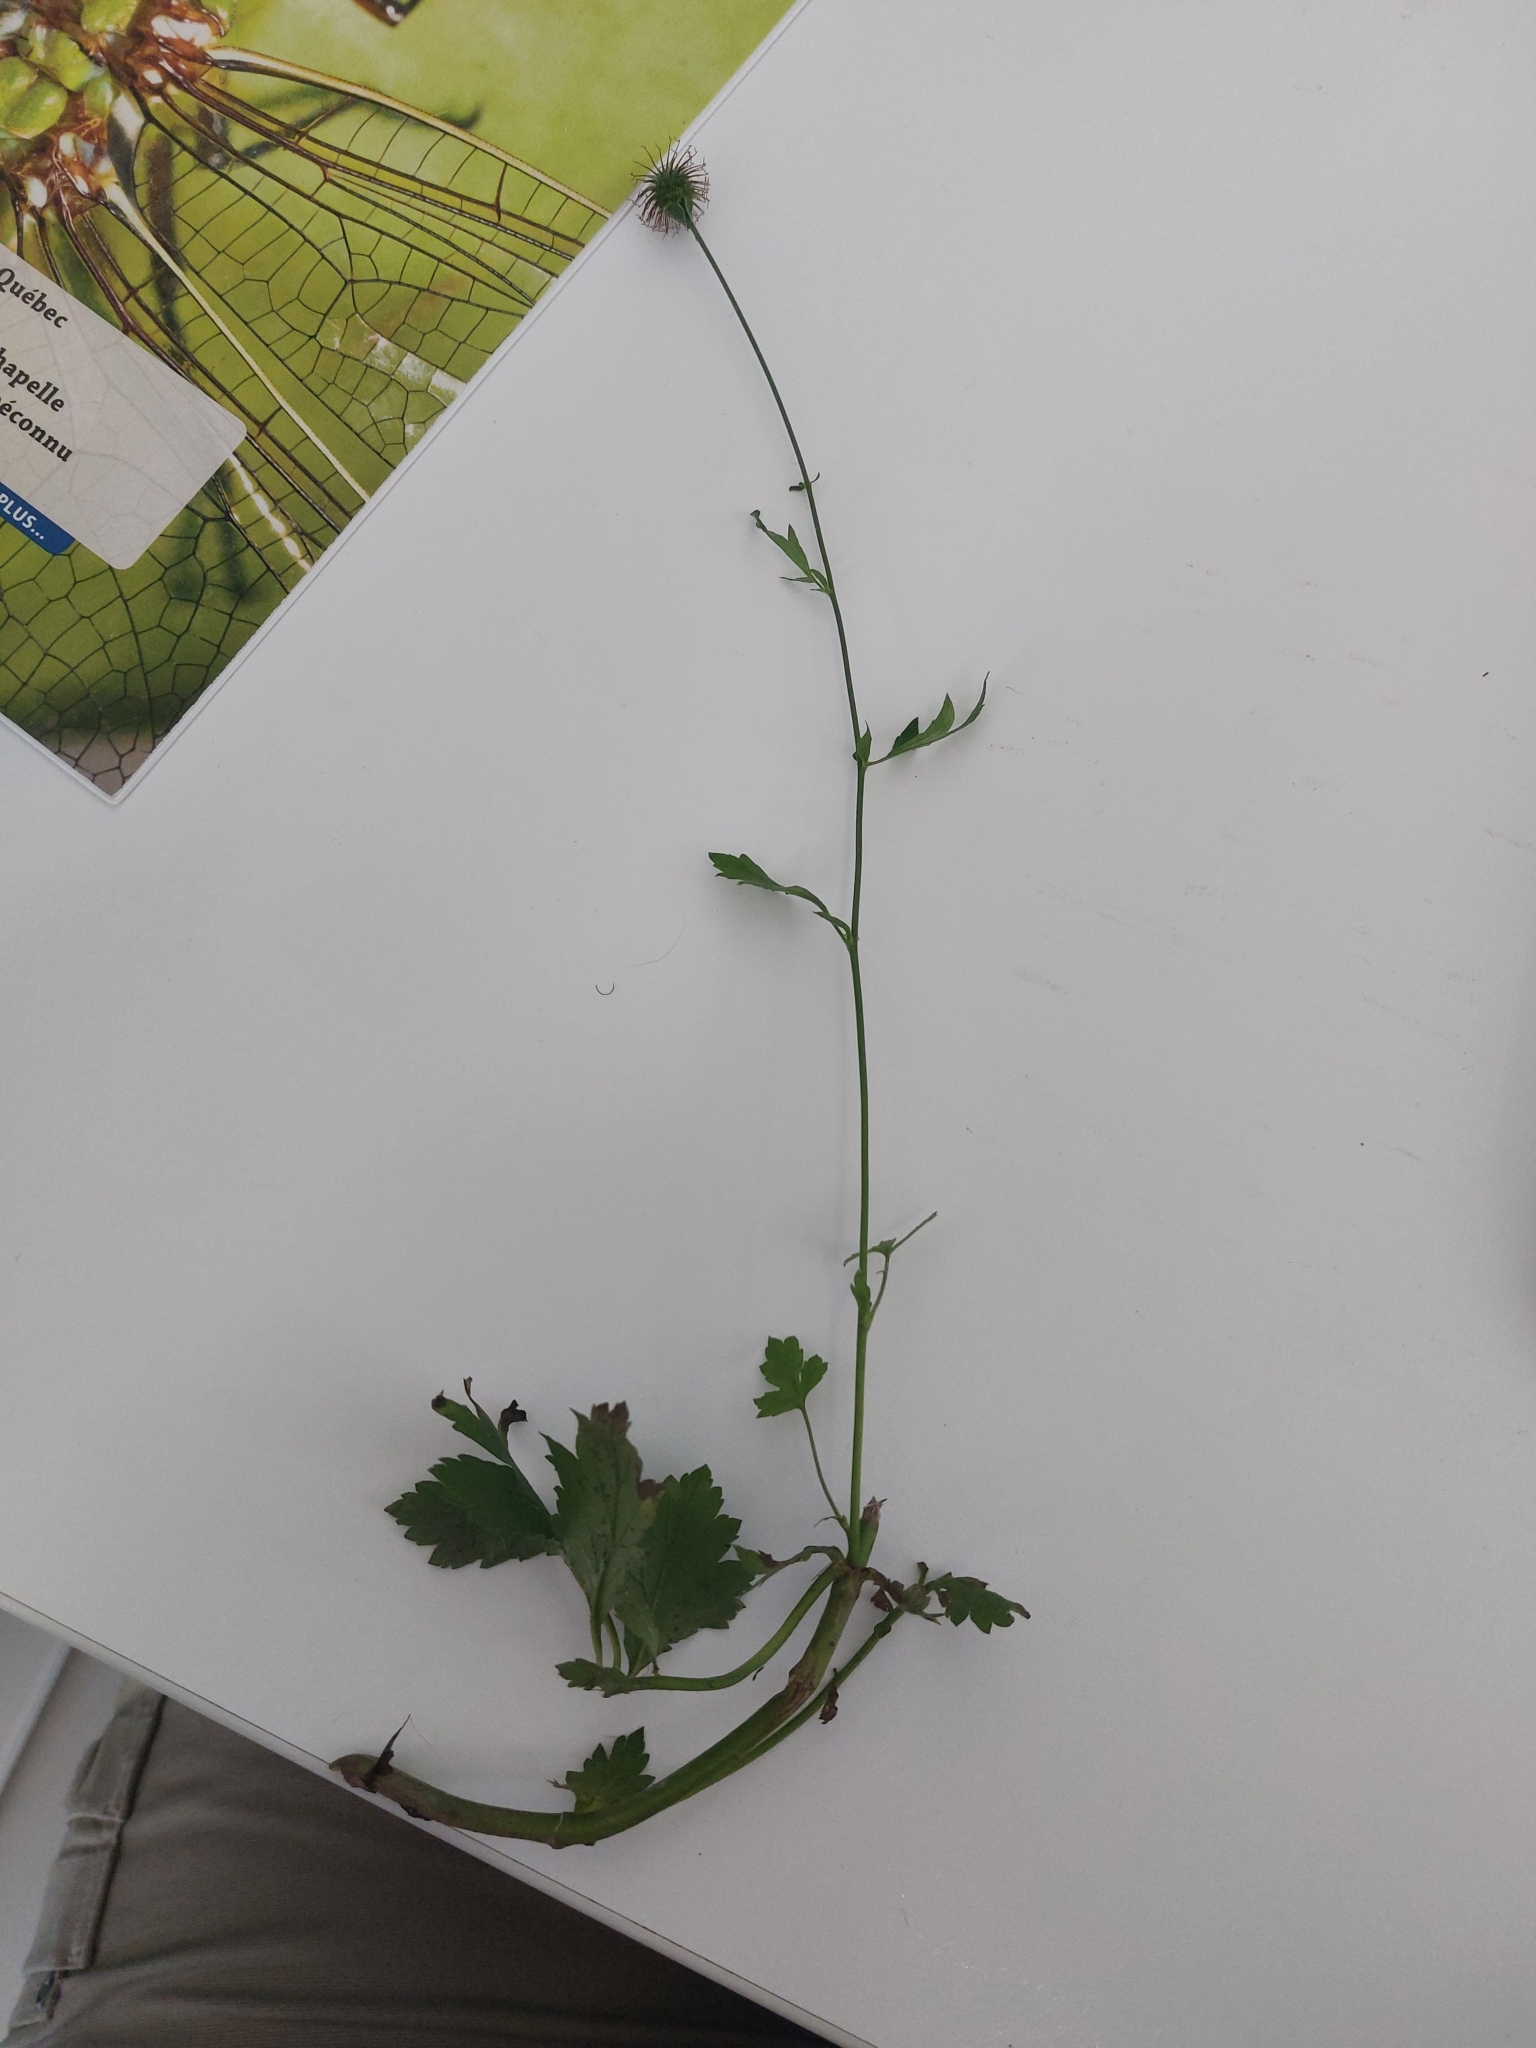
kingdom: Plantae
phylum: Tracheophyta
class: Magnoliopsida
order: Rosales
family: Rosaceae
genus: Geum
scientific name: Geum catlingii
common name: Catling's avens
